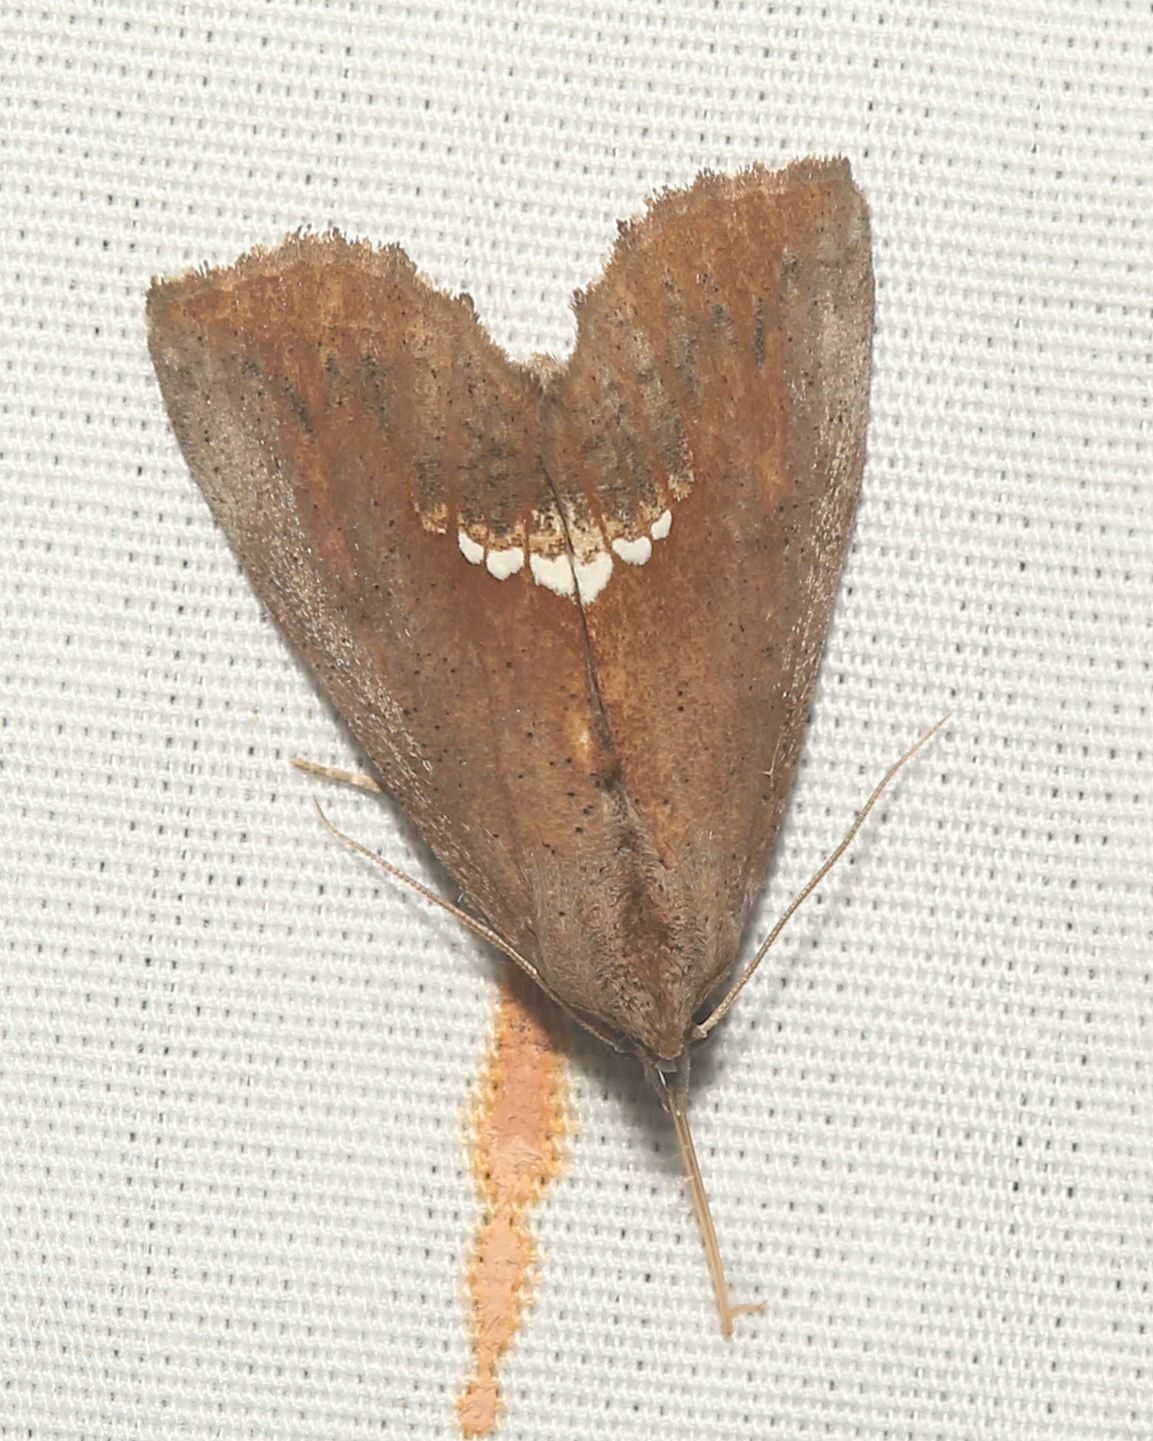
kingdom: Animalia
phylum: Arthropoda
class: Insecta
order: Lepidoptera
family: Erebidae
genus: Hypsoropha
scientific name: Hypsoropha hormos
